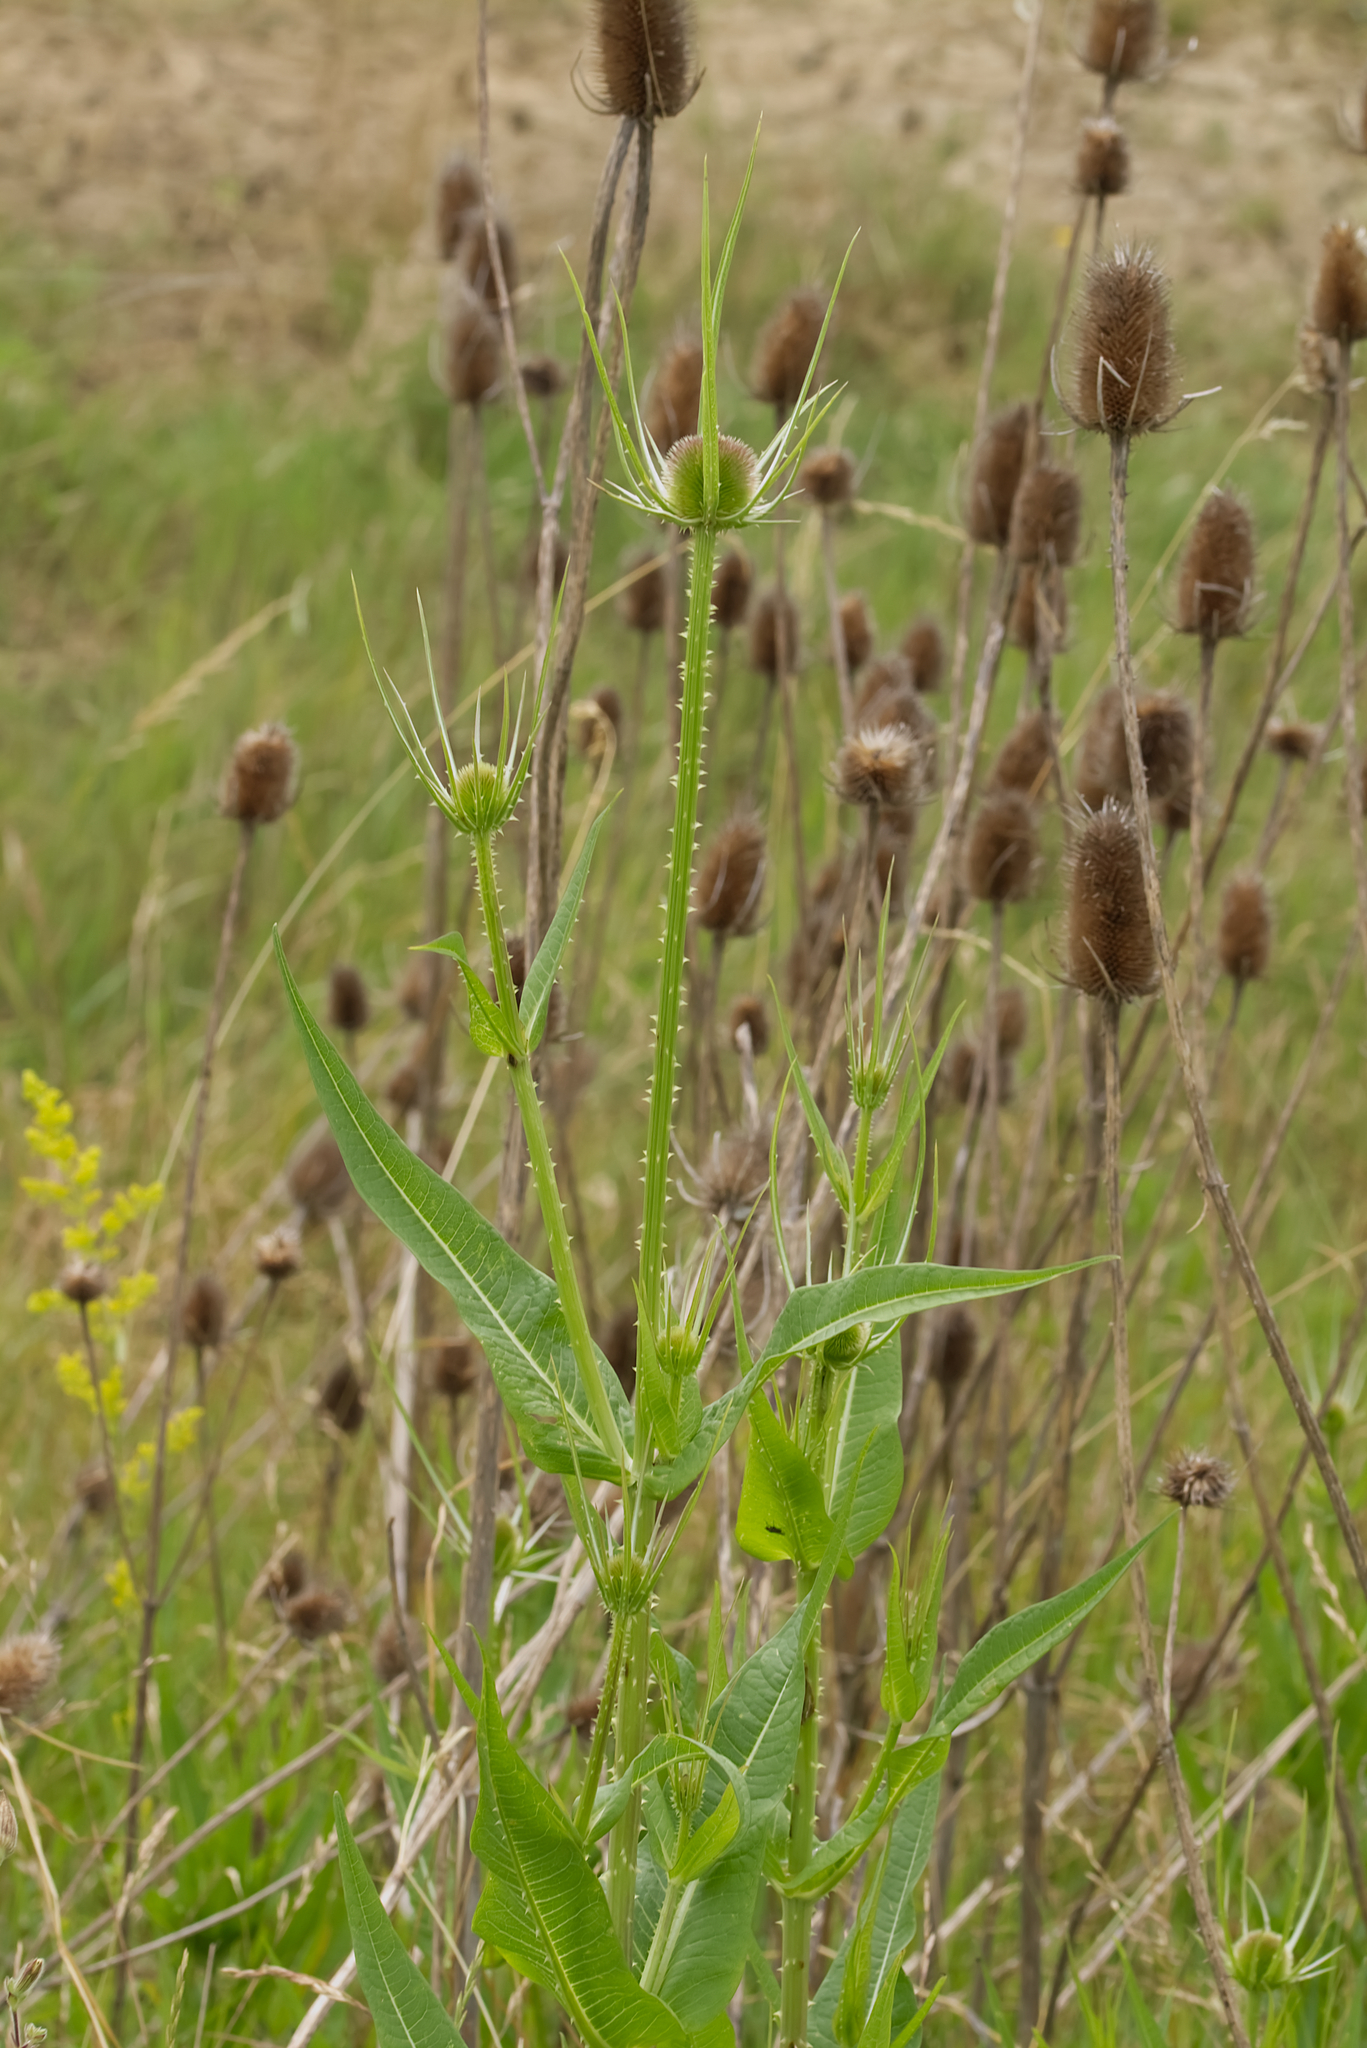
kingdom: Plantae
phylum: Tracheophyta
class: Magnoliopsida
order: Dipsacales
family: Caprifoliaceae
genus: Dipsacus
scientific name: Dipsacus fullonum
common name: Teasel
